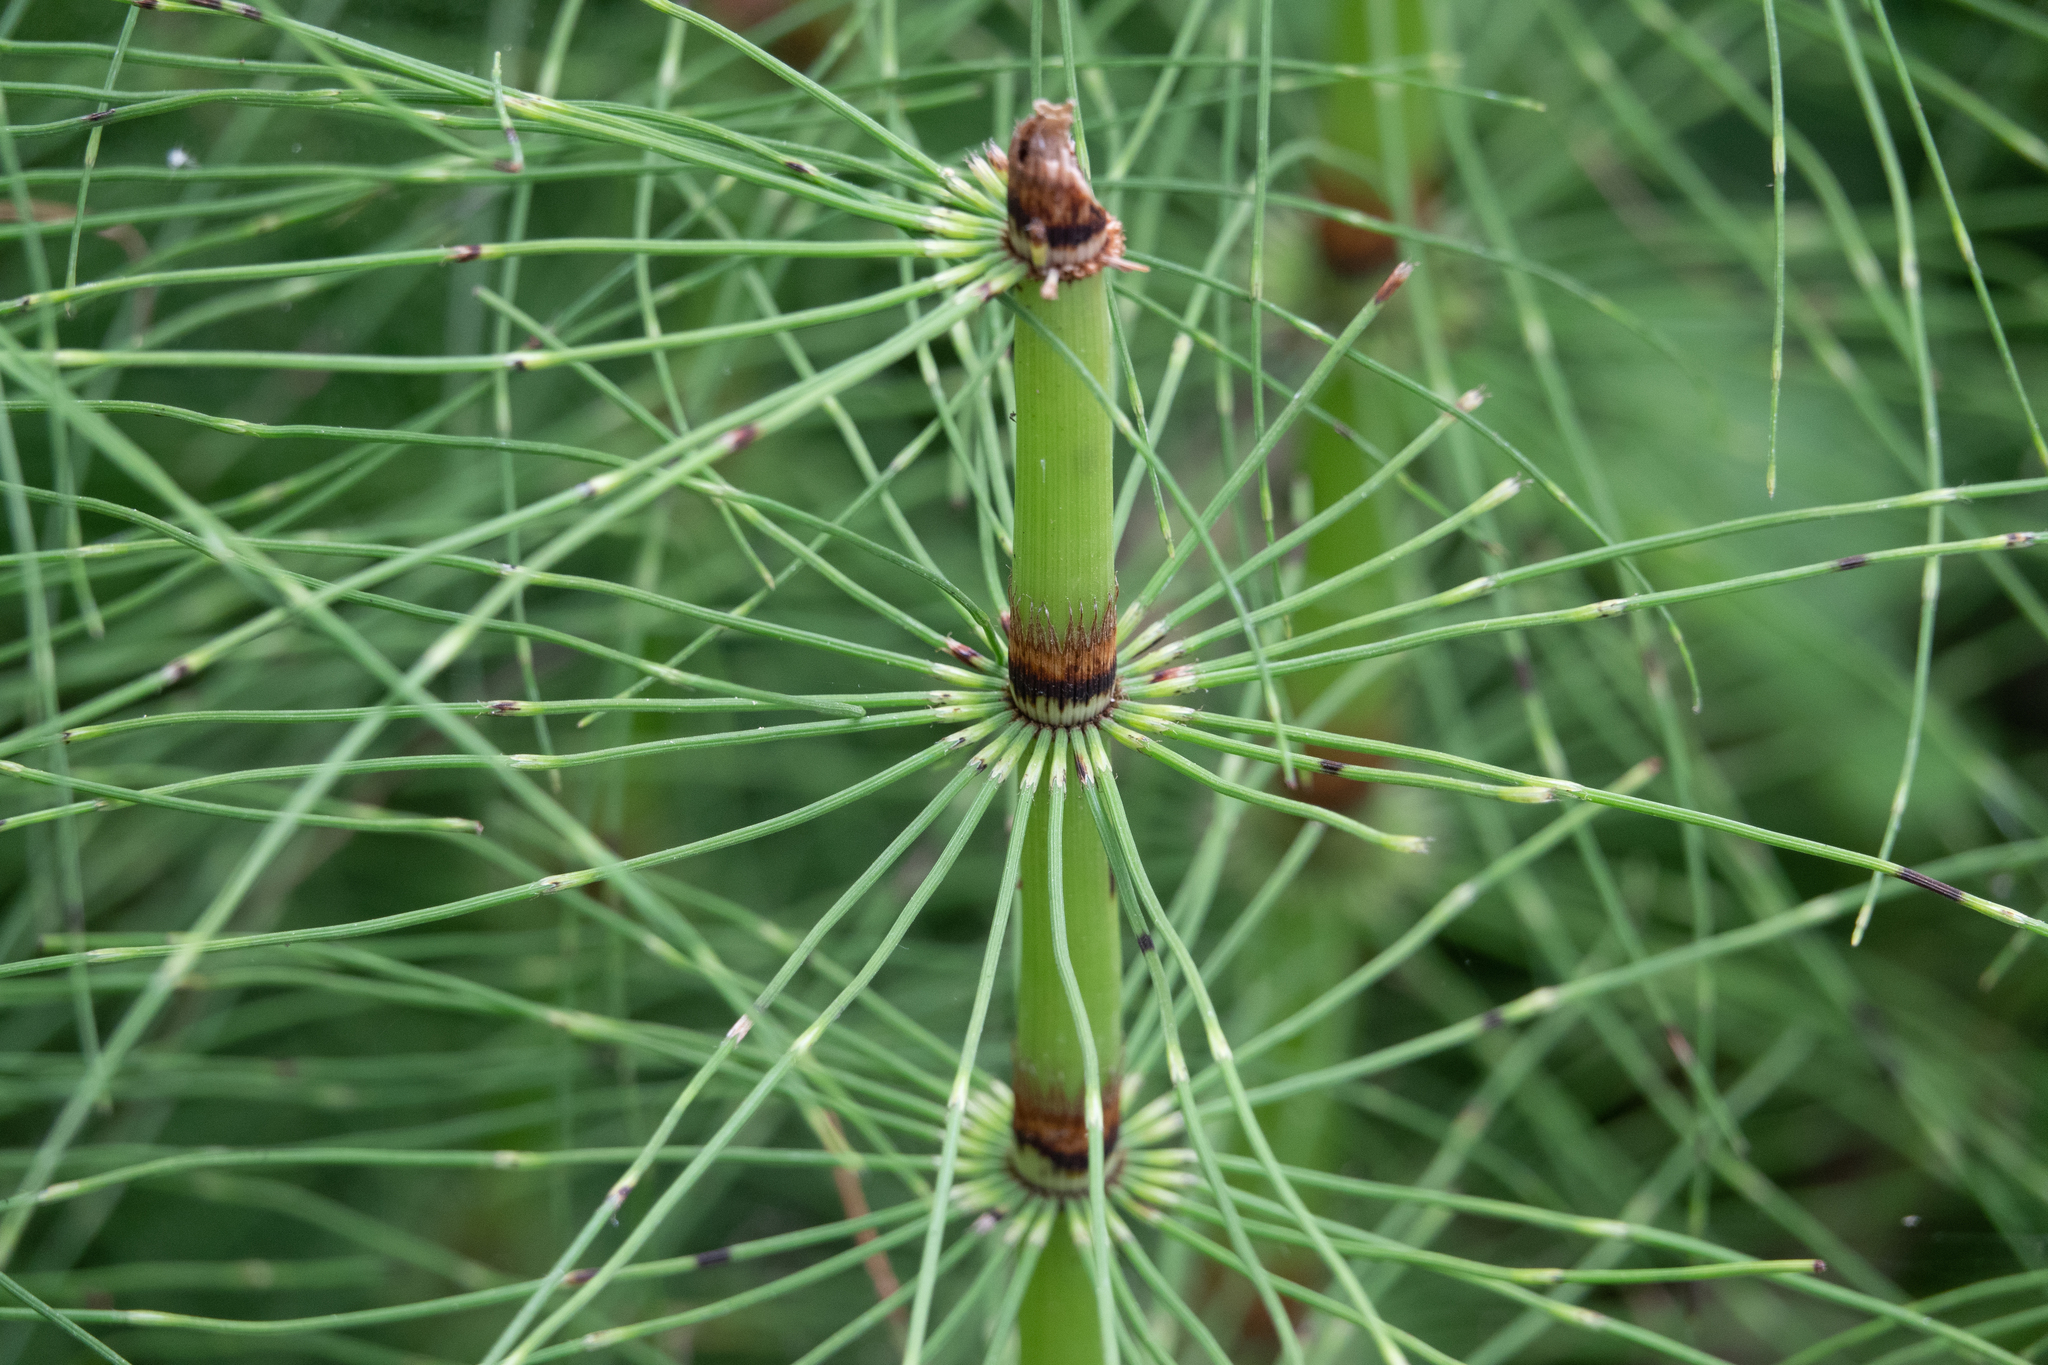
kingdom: Plantae
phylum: Tracheophyta
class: Polypodiopsida
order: Equisetales
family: Equisetaceae
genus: Equisetum
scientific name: Equisetum telmateia
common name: Great horsetail
